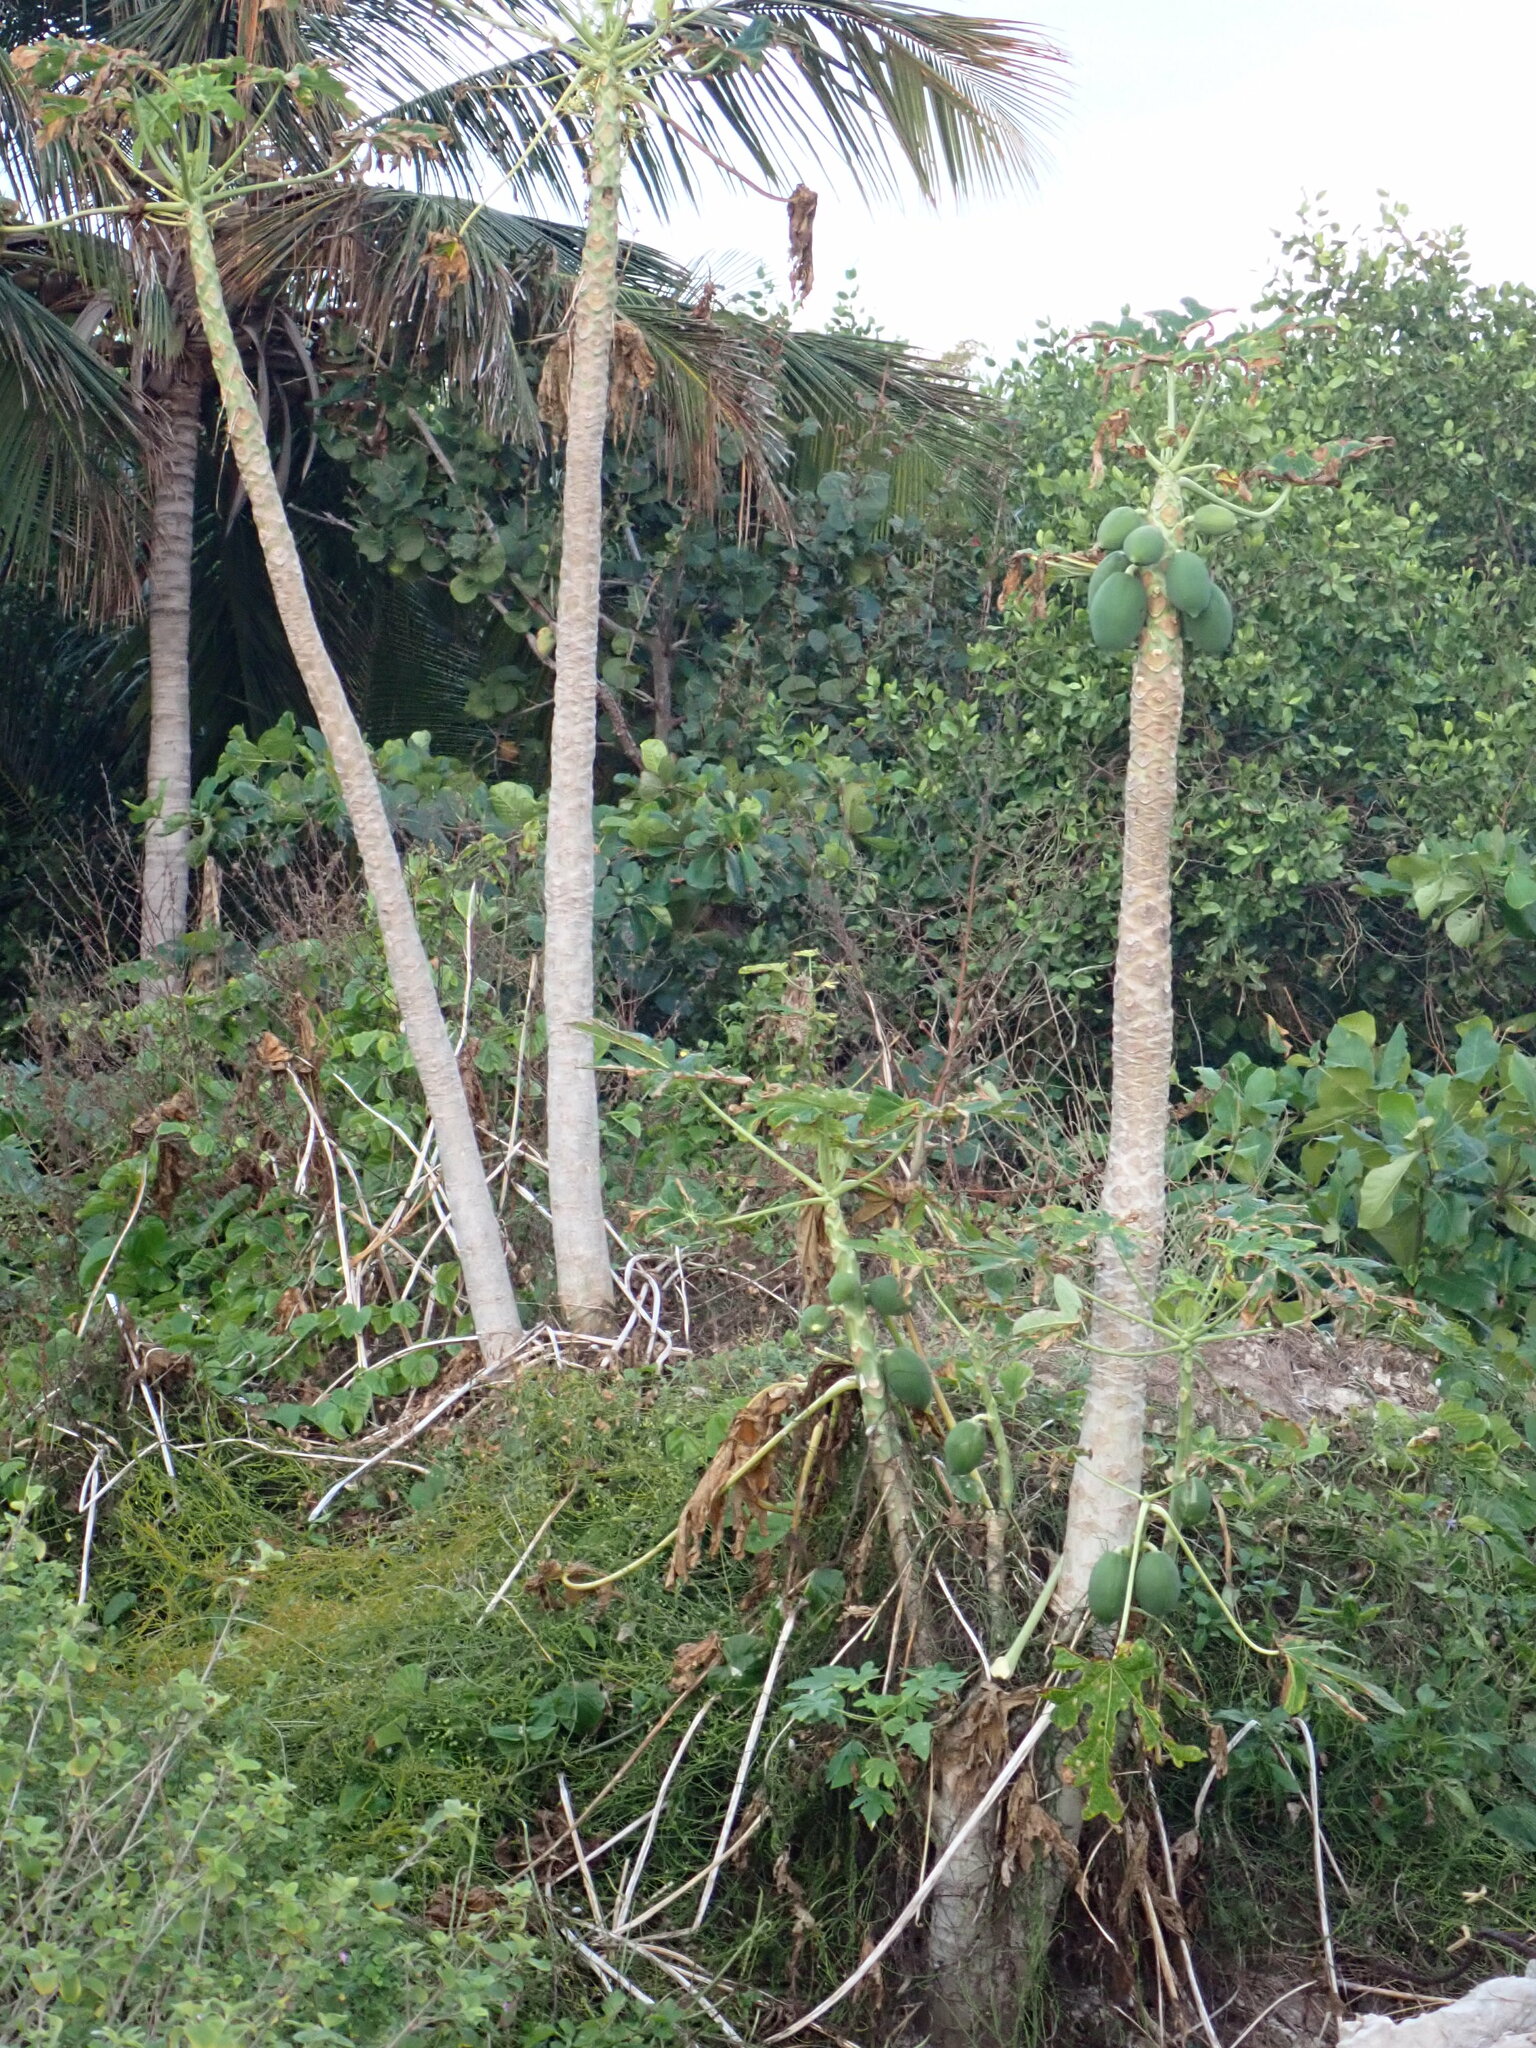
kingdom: Plantae
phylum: Tracheophyta
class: Magnoliopsida
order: Brassicales
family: Caricaceae
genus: Carica
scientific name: Carica papaya
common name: Papaya
